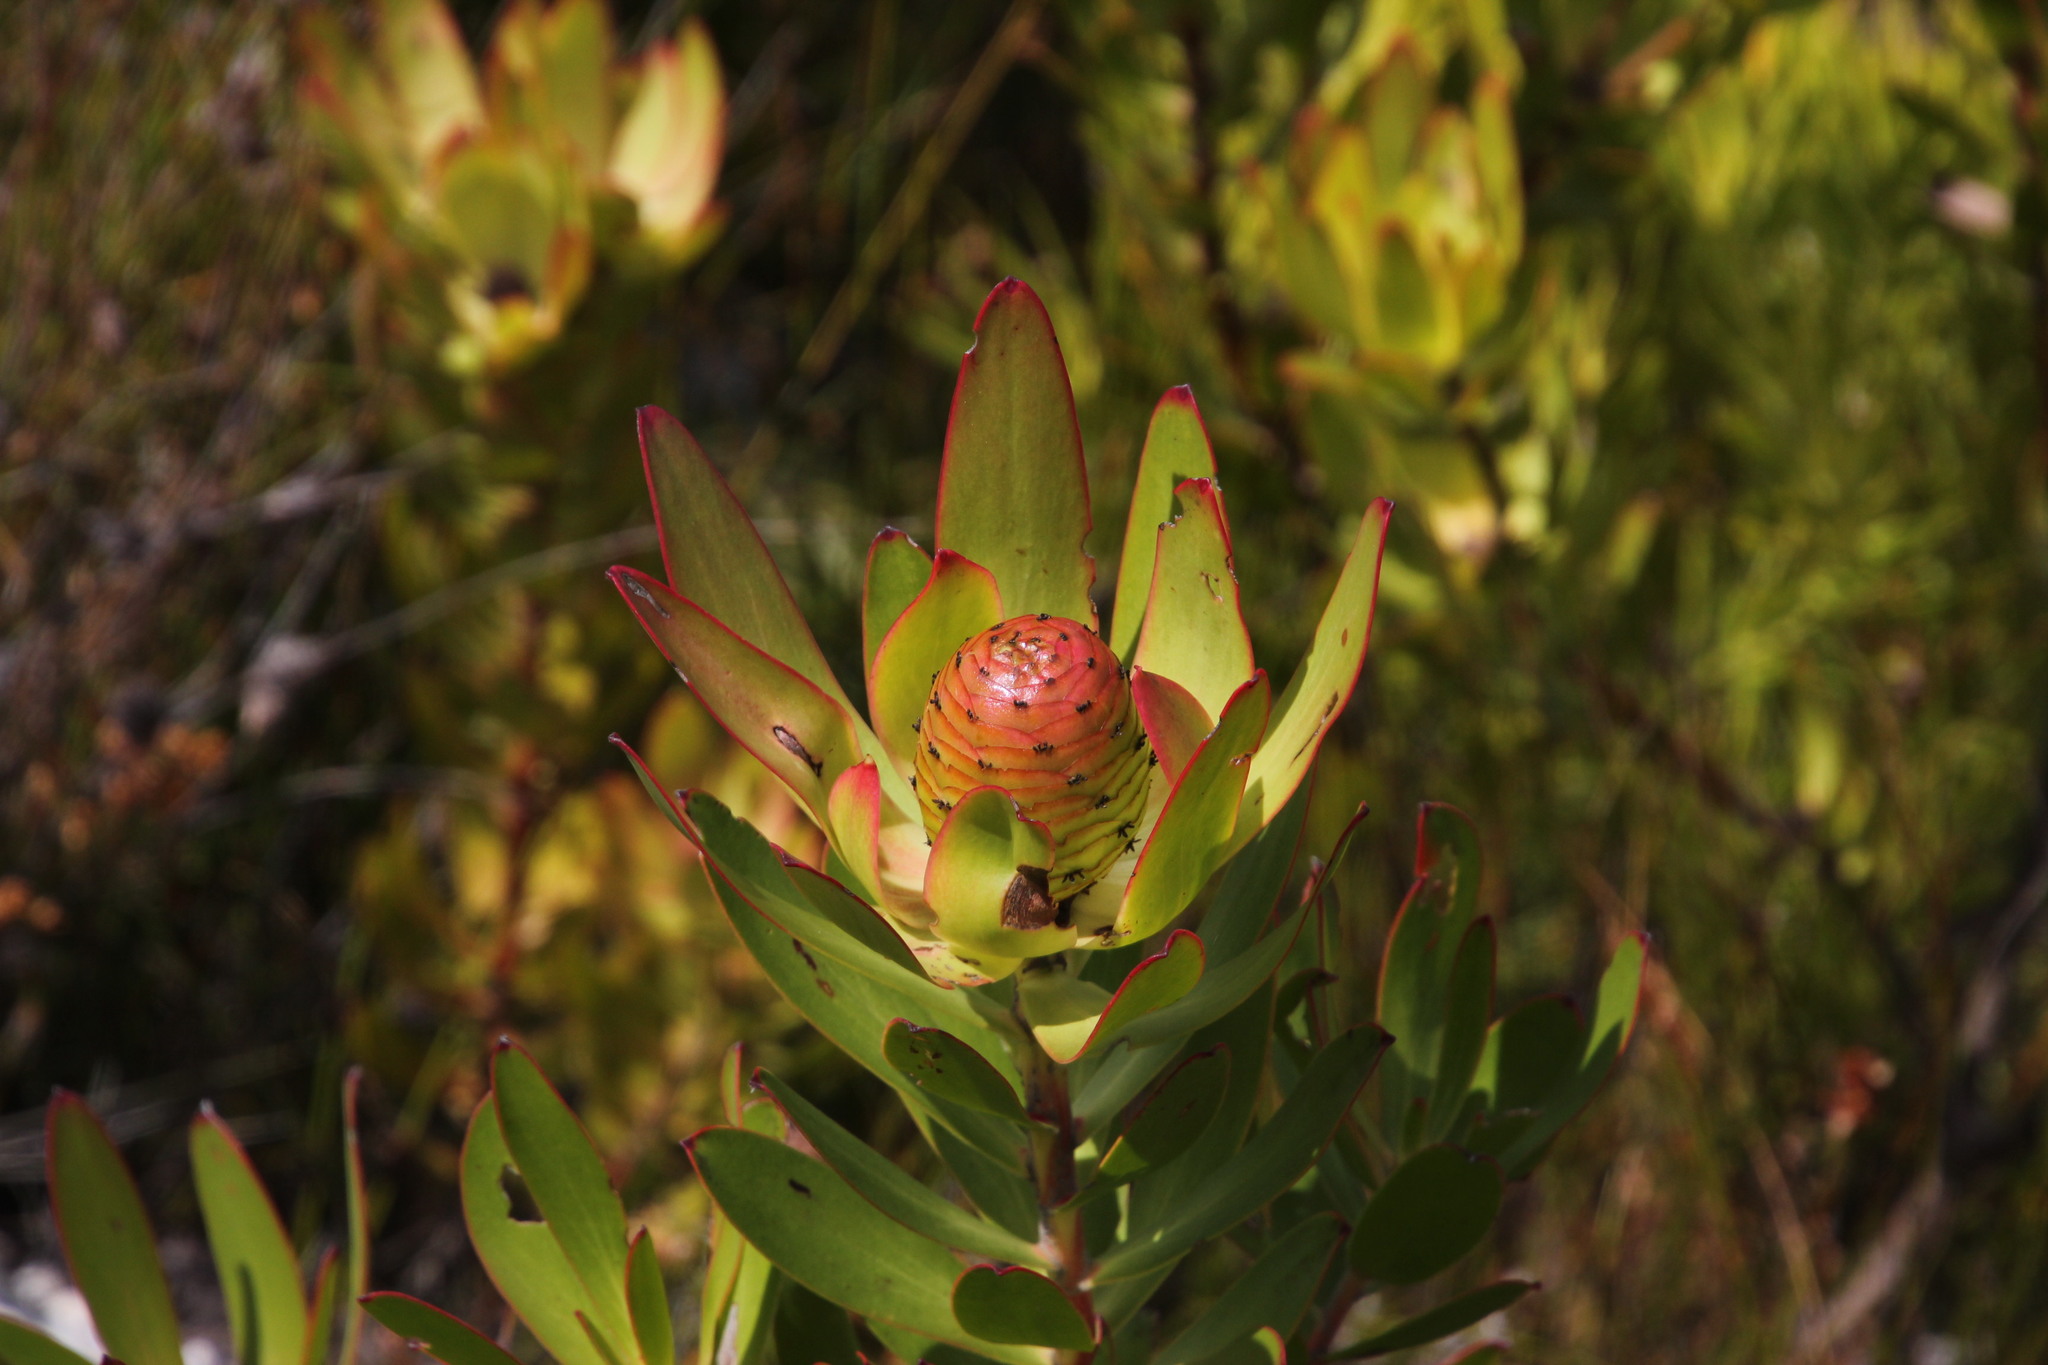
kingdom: Plantae
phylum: Tracheophyta
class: Magnoliopsida
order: Proteales
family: Proteaceae
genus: Leucadendron
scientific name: Leucadendron gandogeri
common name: Broad-leaf conebush
